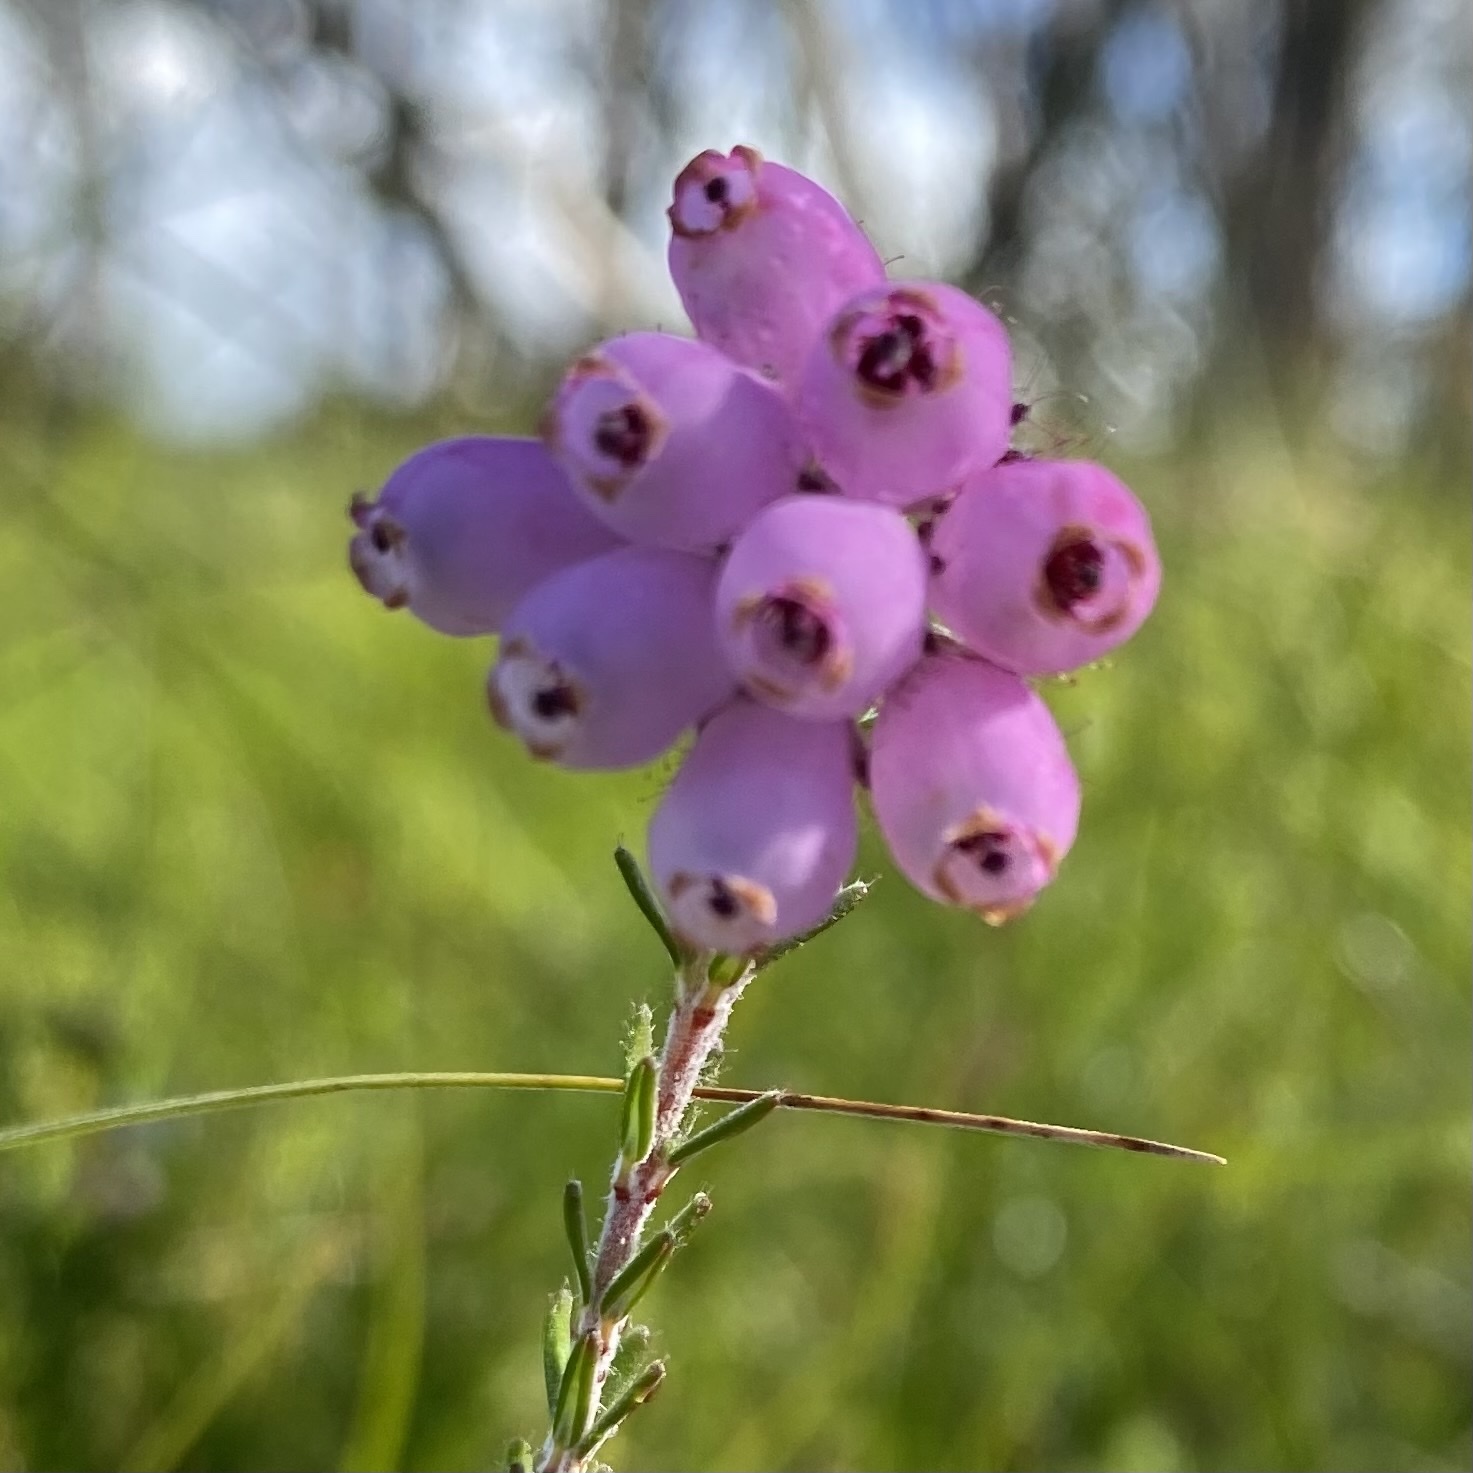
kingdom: Plantae
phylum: Tracheophyta
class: Magnoliopsida
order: Ericales
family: Ericaceae
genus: Erica
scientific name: Erica tetralix
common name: Cross-leaved heath
